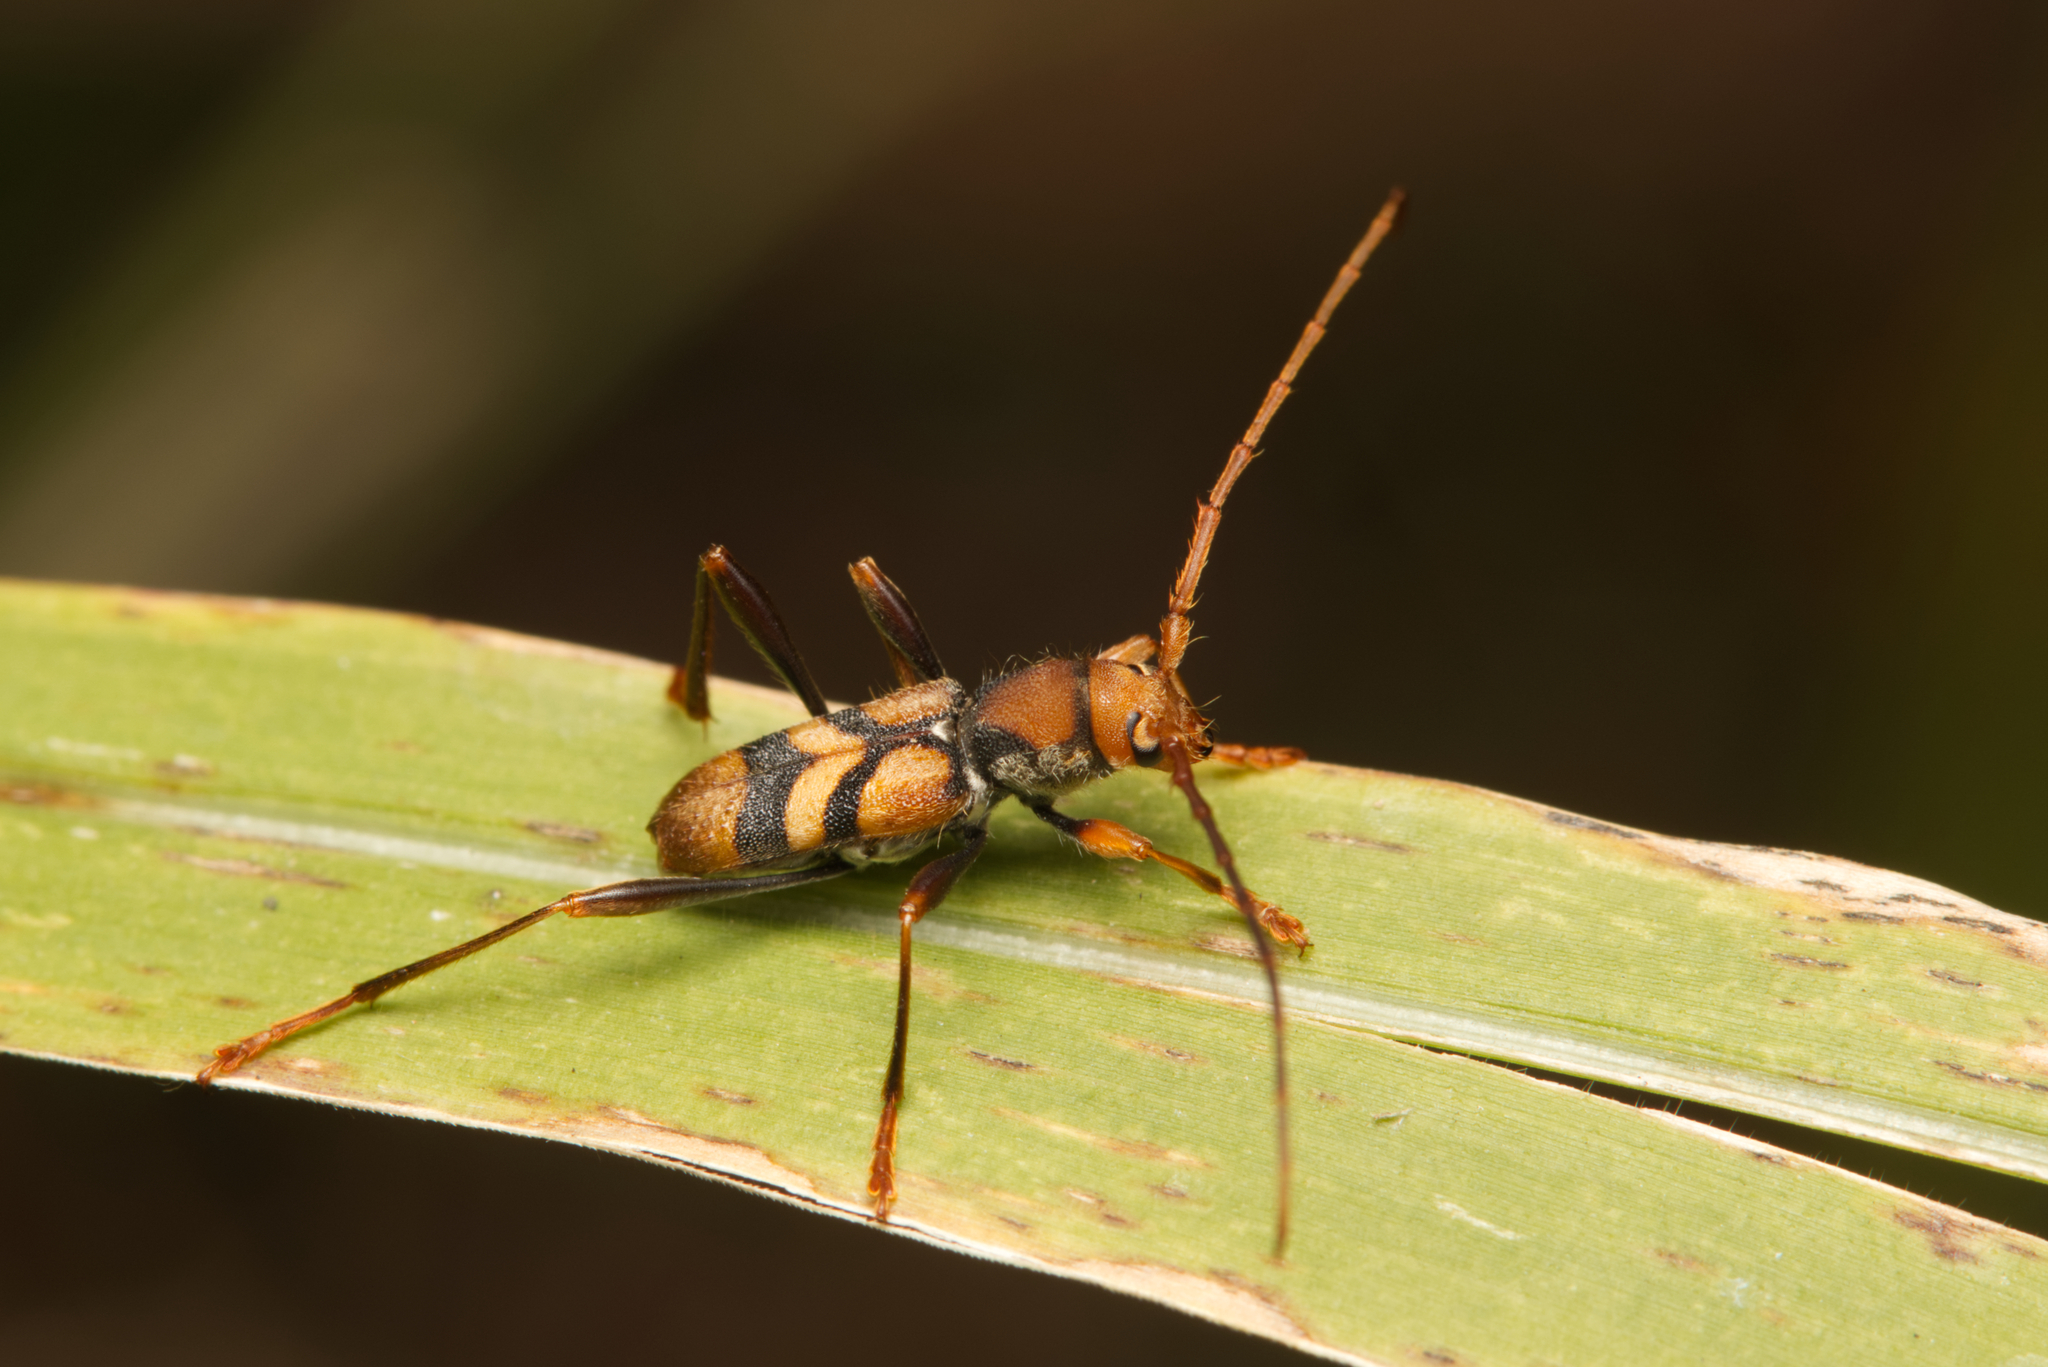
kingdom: Animalia
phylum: Arthropoda
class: Insecta
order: Coleoptera
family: Cerambycidae
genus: Aridaeus
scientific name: Aridaeus thoracicus
